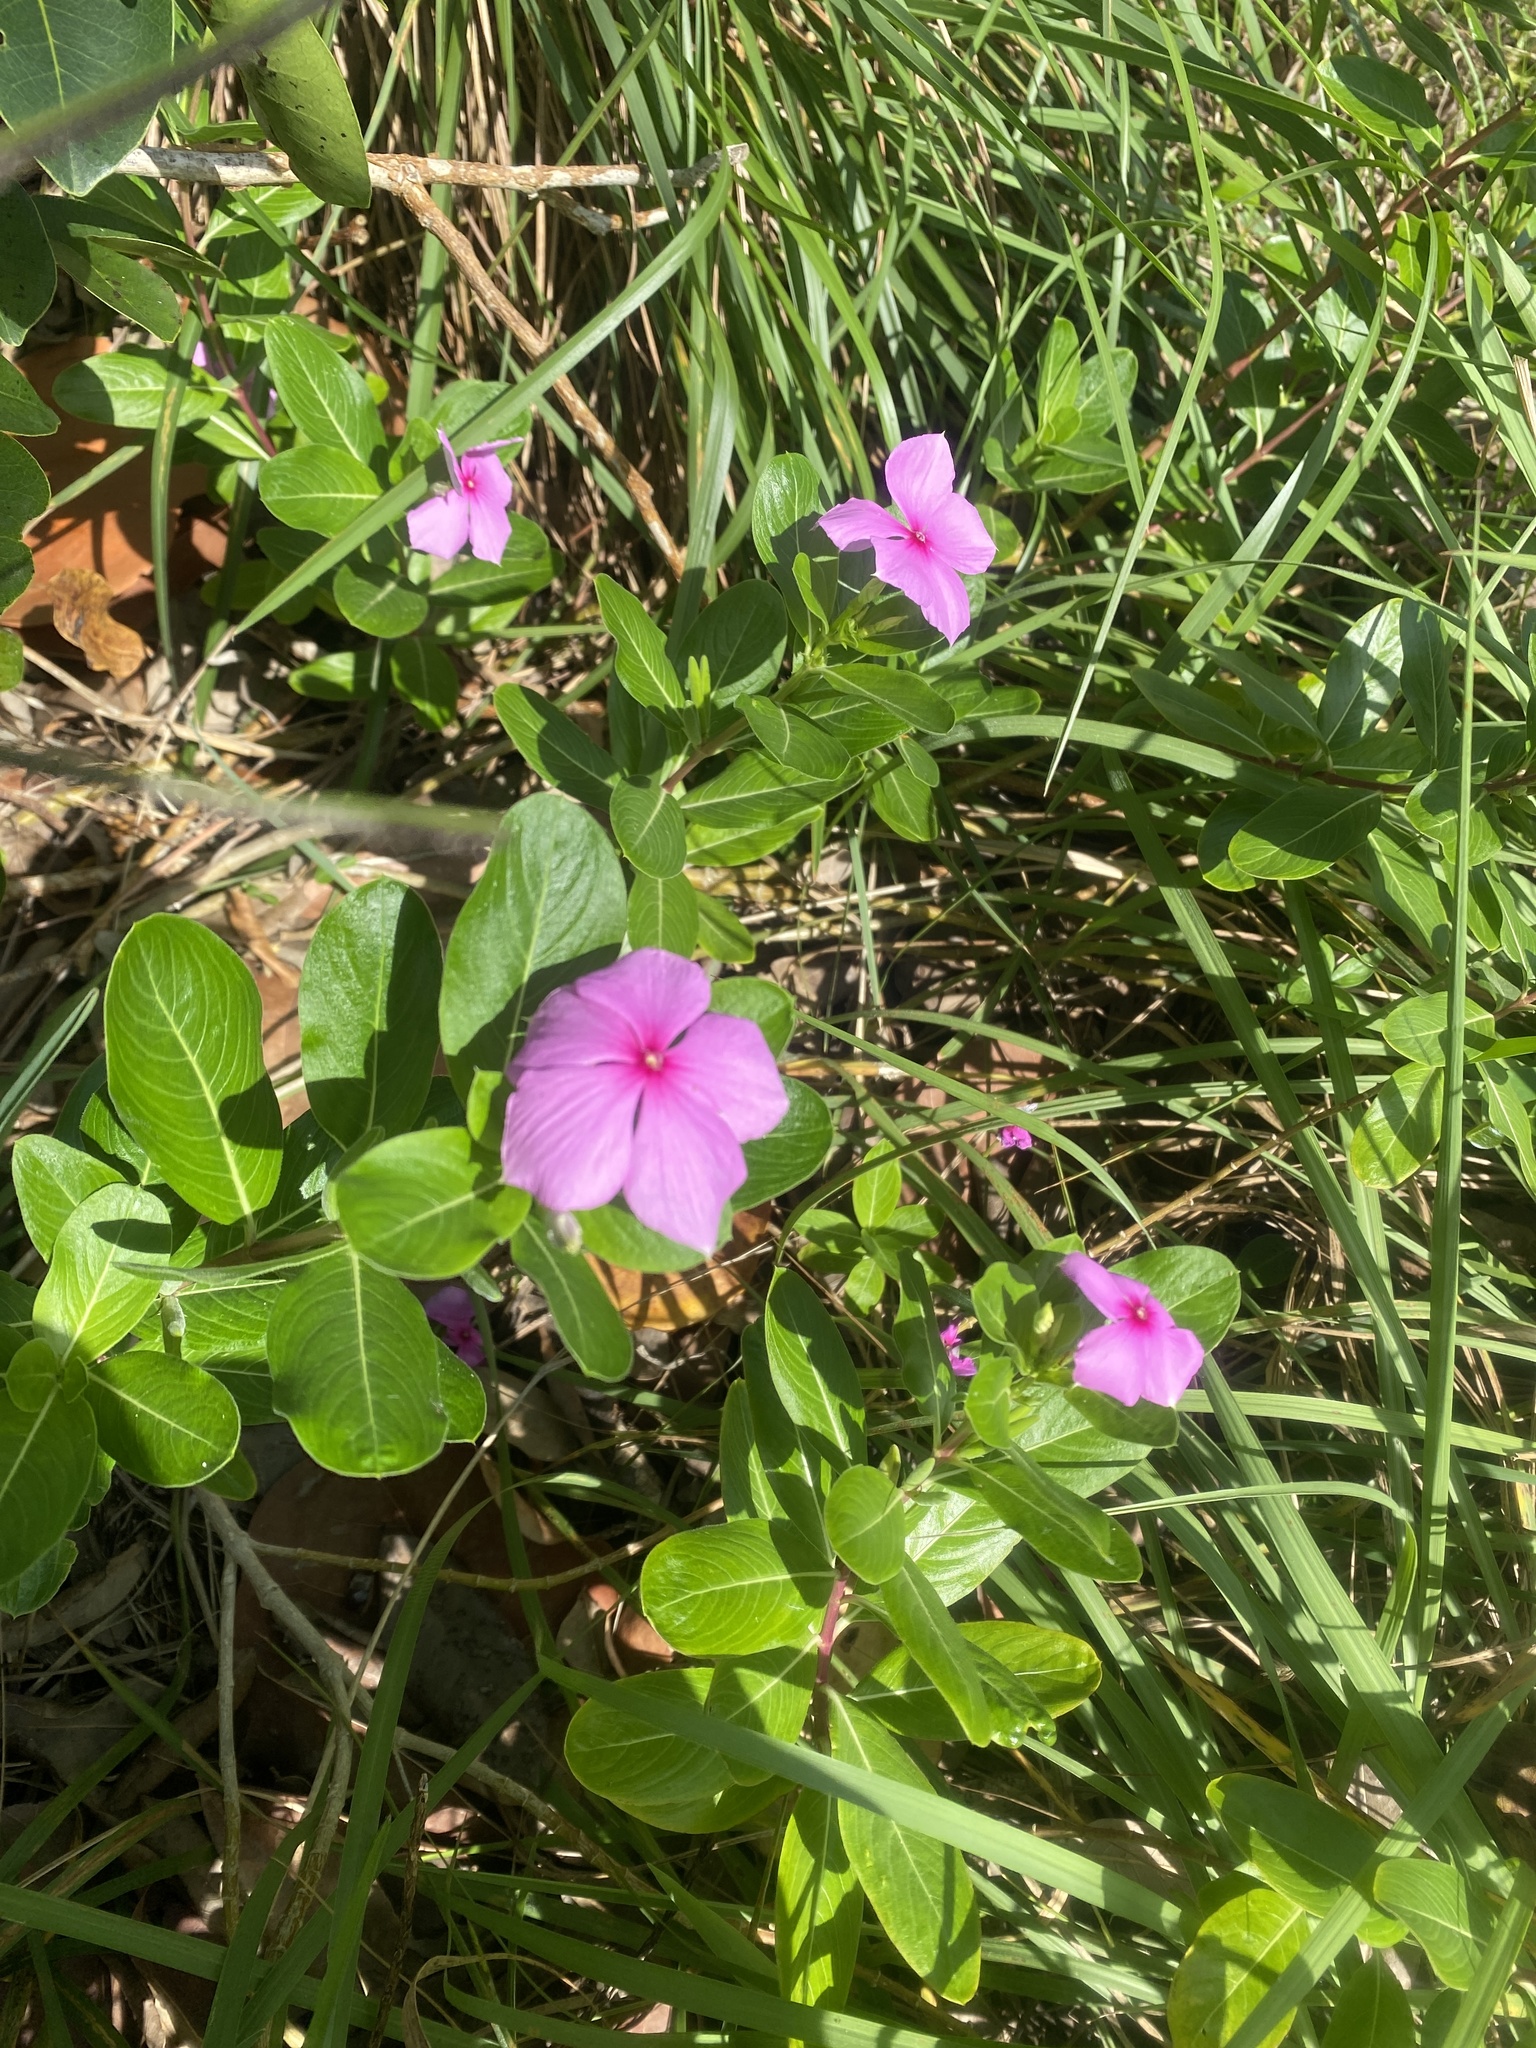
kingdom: Plantae
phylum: Tracheophyta
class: Magnoliopsida
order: Gentianales
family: Apocynaceae
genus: Catharanthus
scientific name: Catharanthus roseus
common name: Madagascar periwinkle
